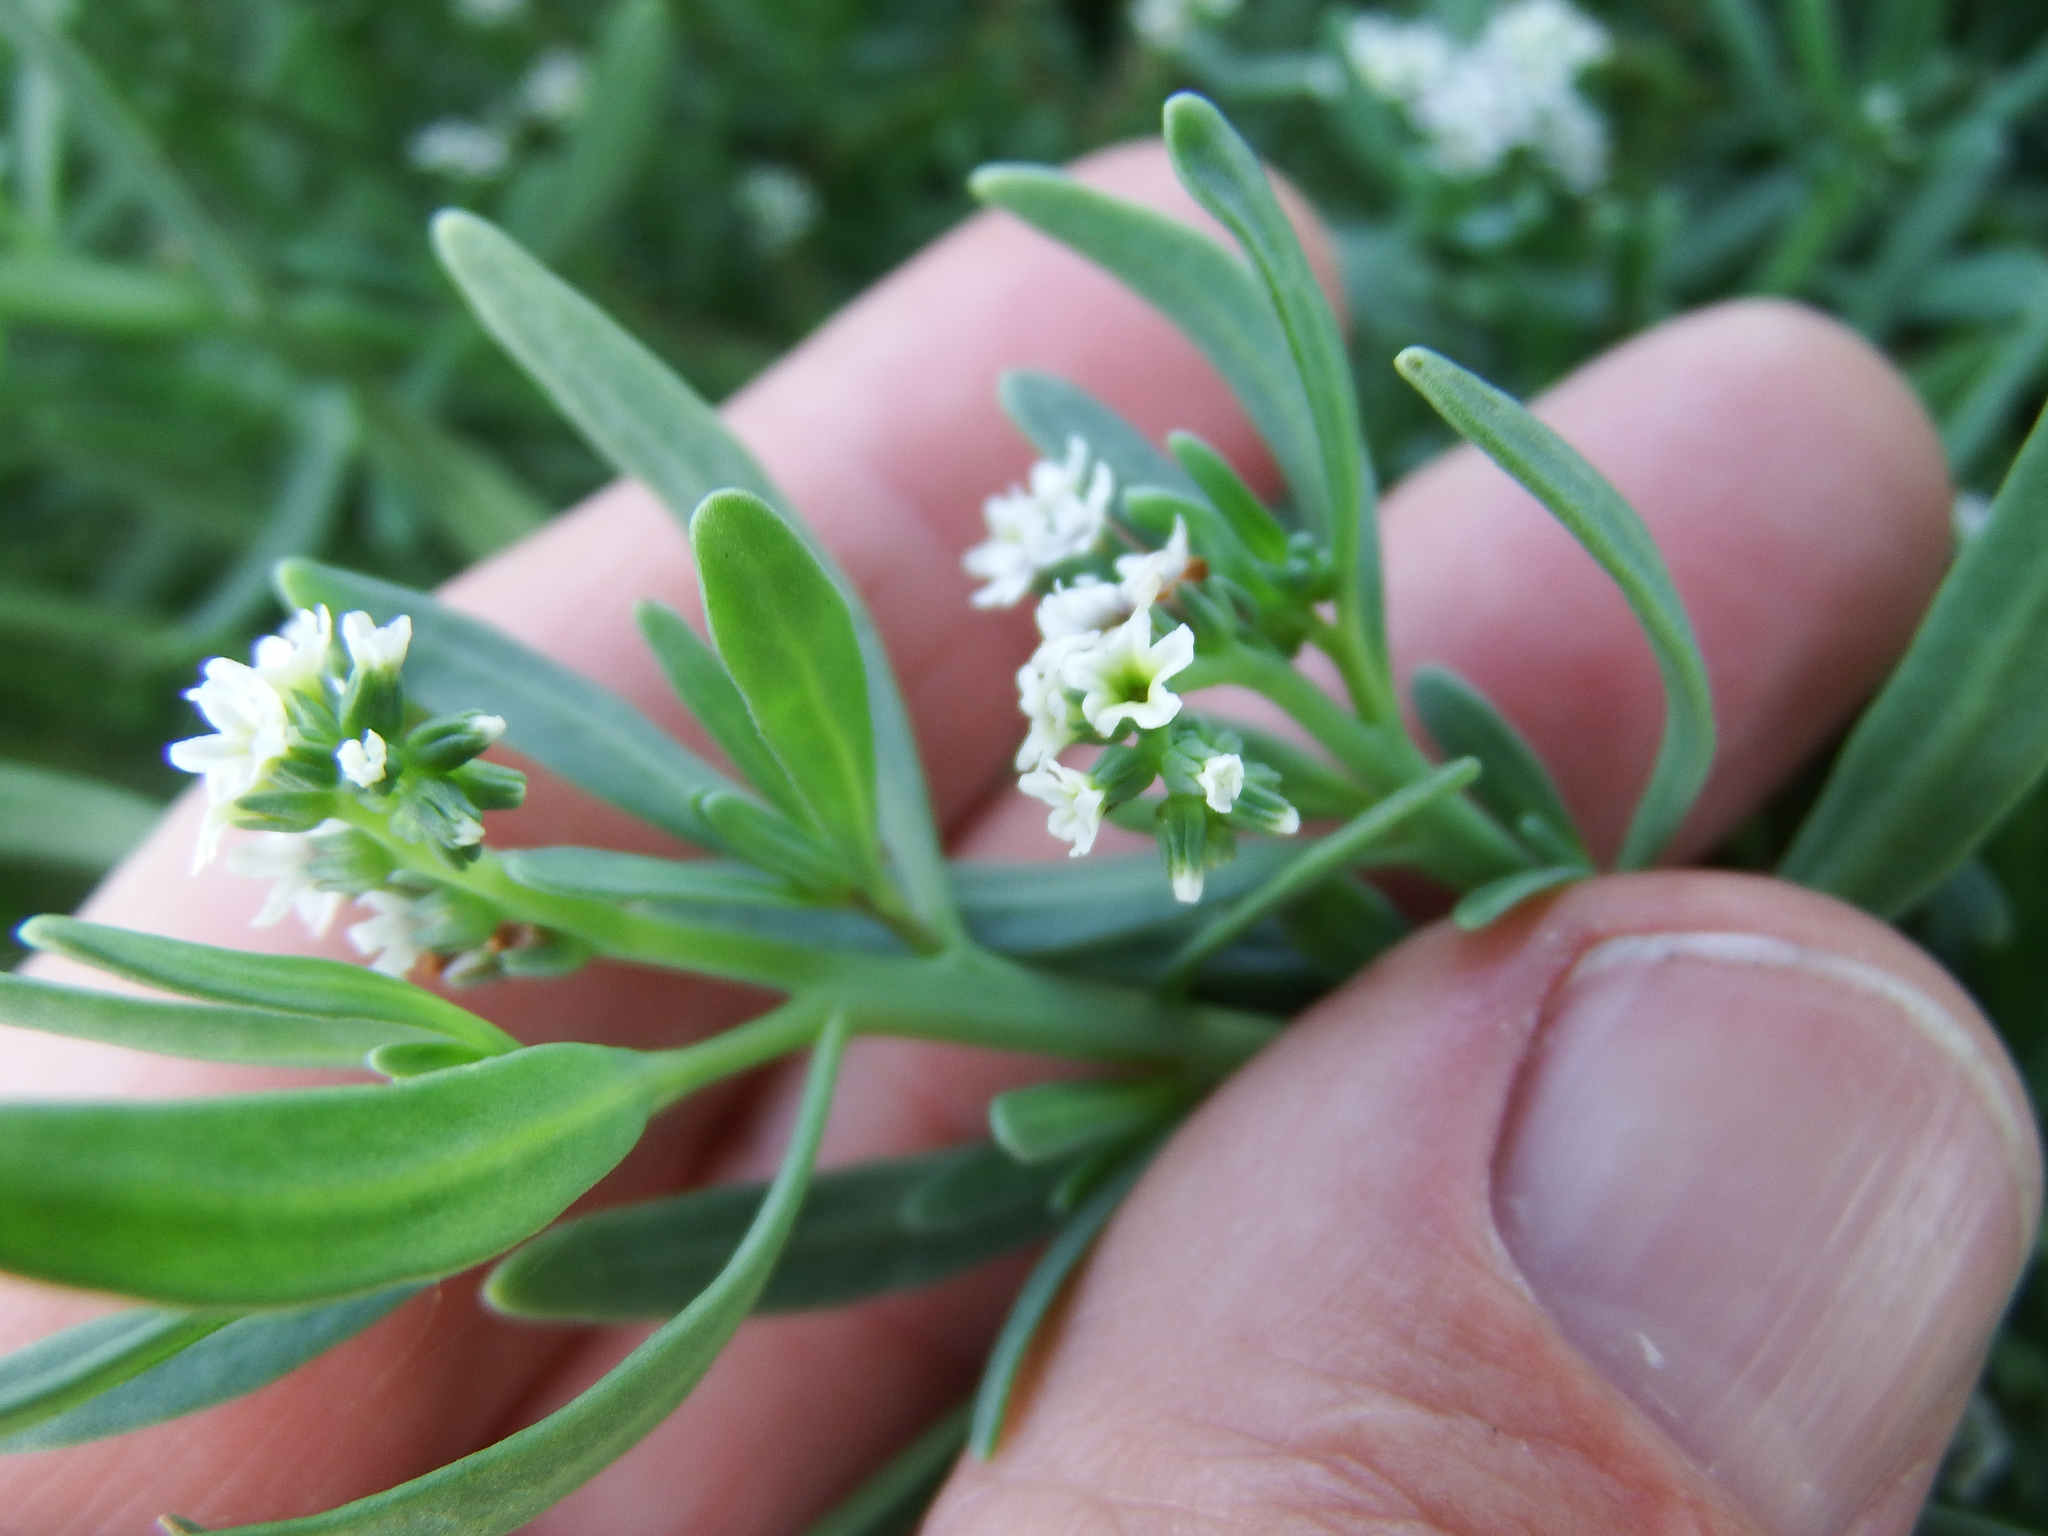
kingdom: Plantae
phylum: Tracheophyta
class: Magnoliopsida
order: Boraginales
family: Heliotropiaceae
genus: Heliotropium
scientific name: Heliotropium curassavicum
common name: Seaside heliotrope
